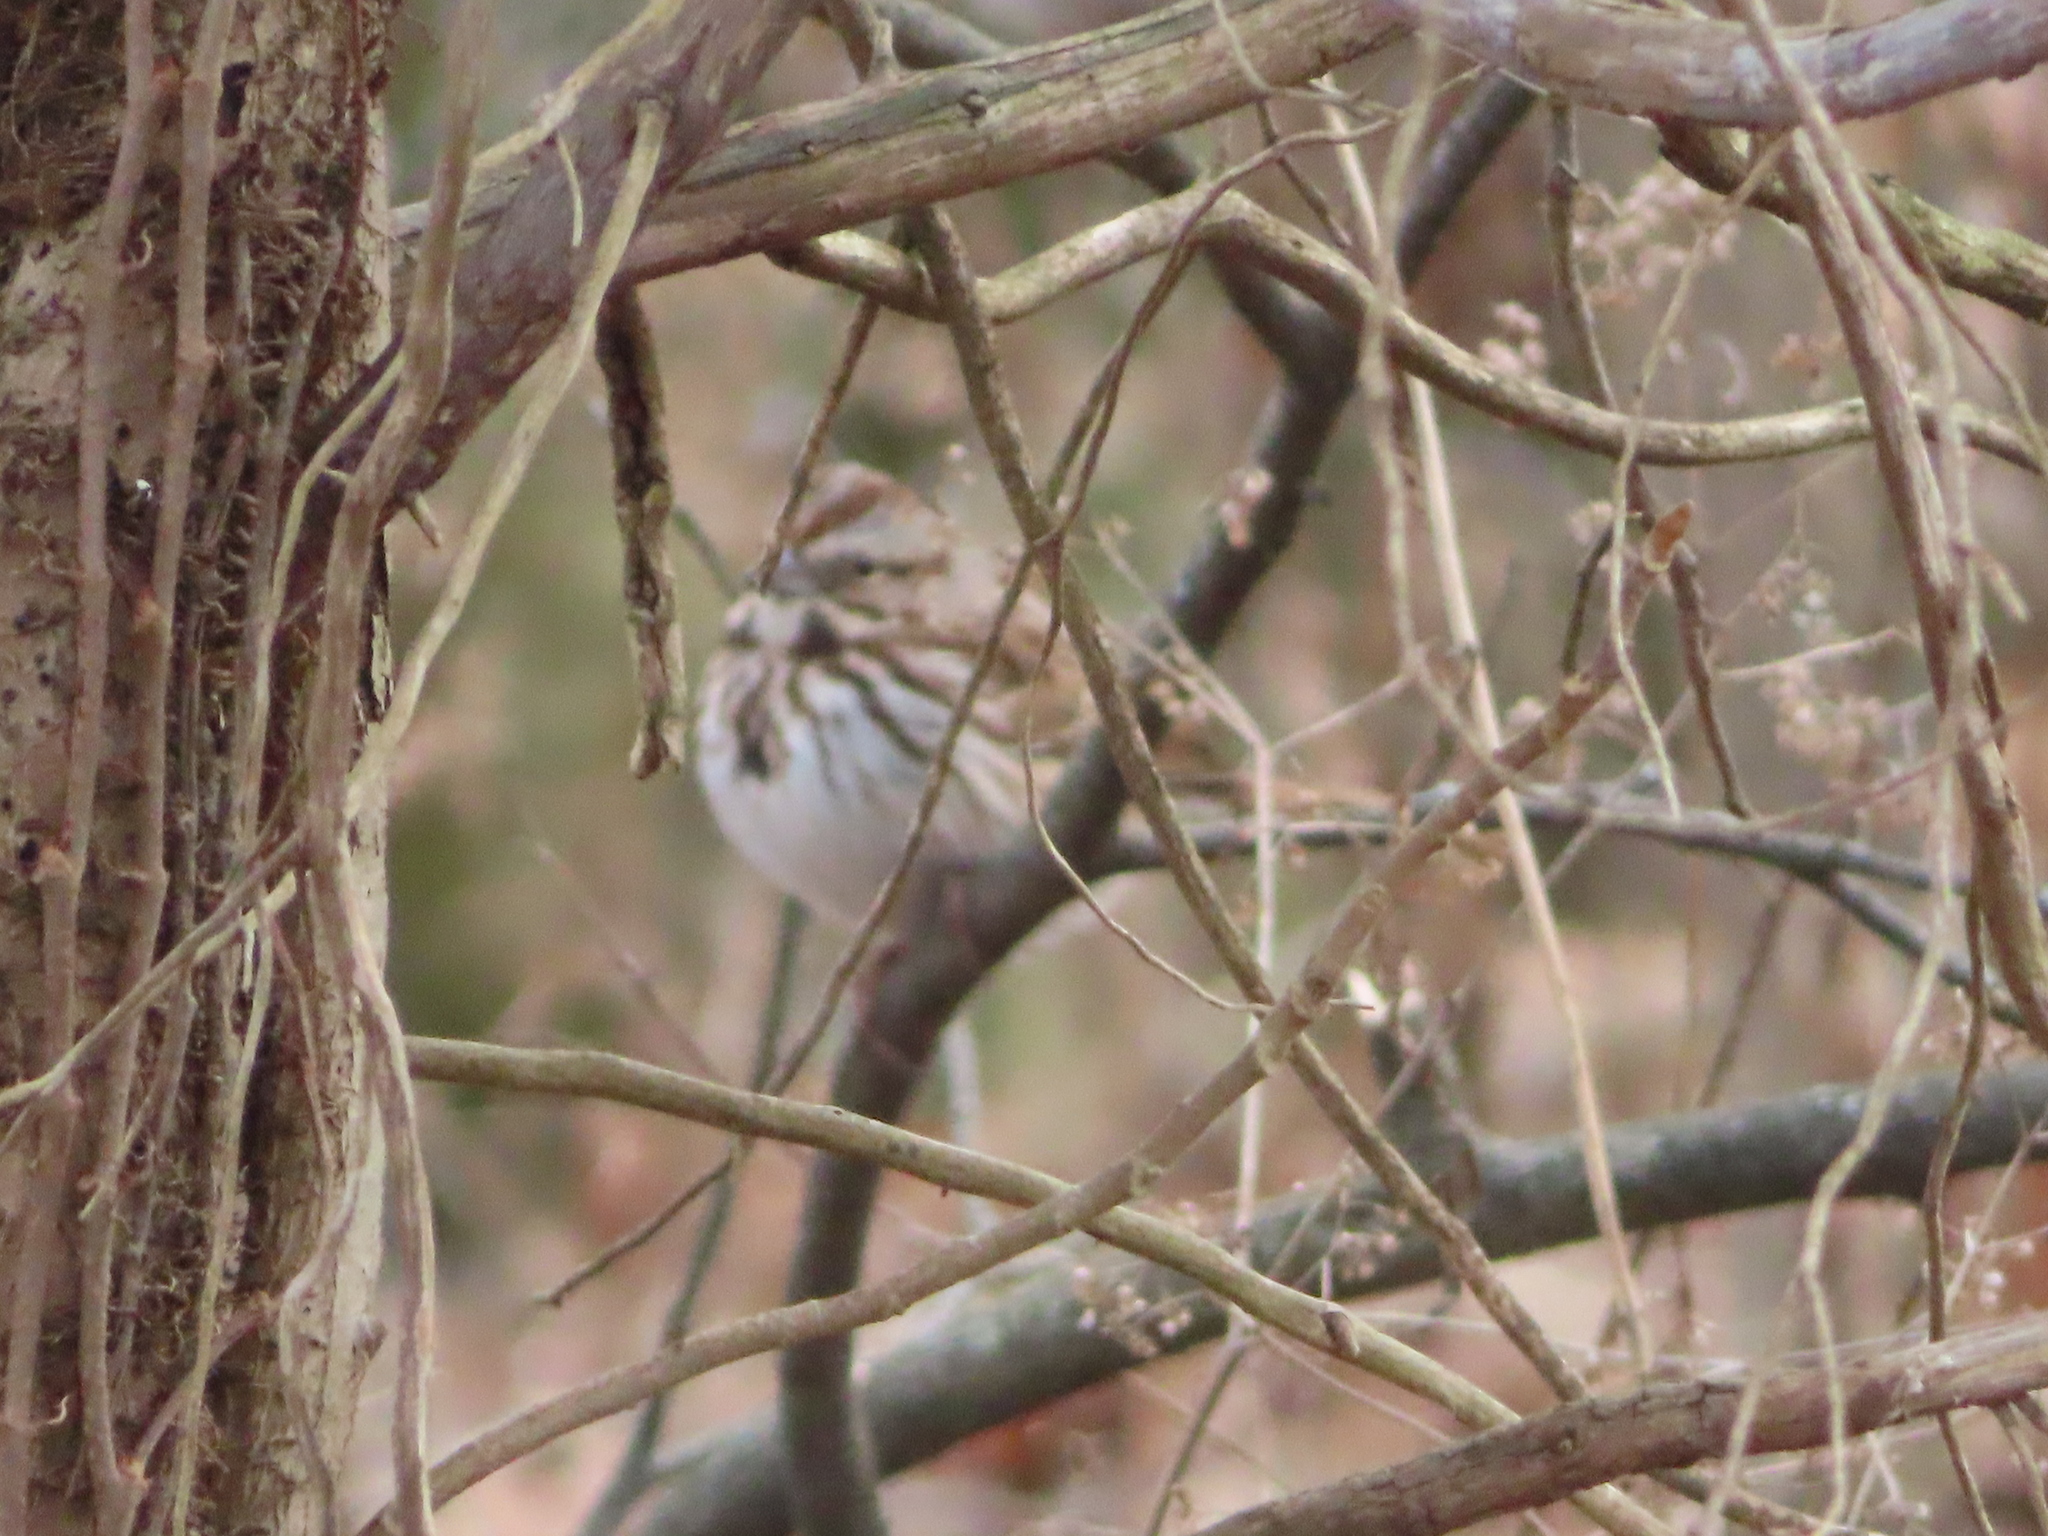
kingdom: Animalia
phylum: Chordata
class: Aves
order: Passeriformes
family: Passerellidae
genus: Melospiza
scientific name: Melospiza melodia
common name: Song sparrow
